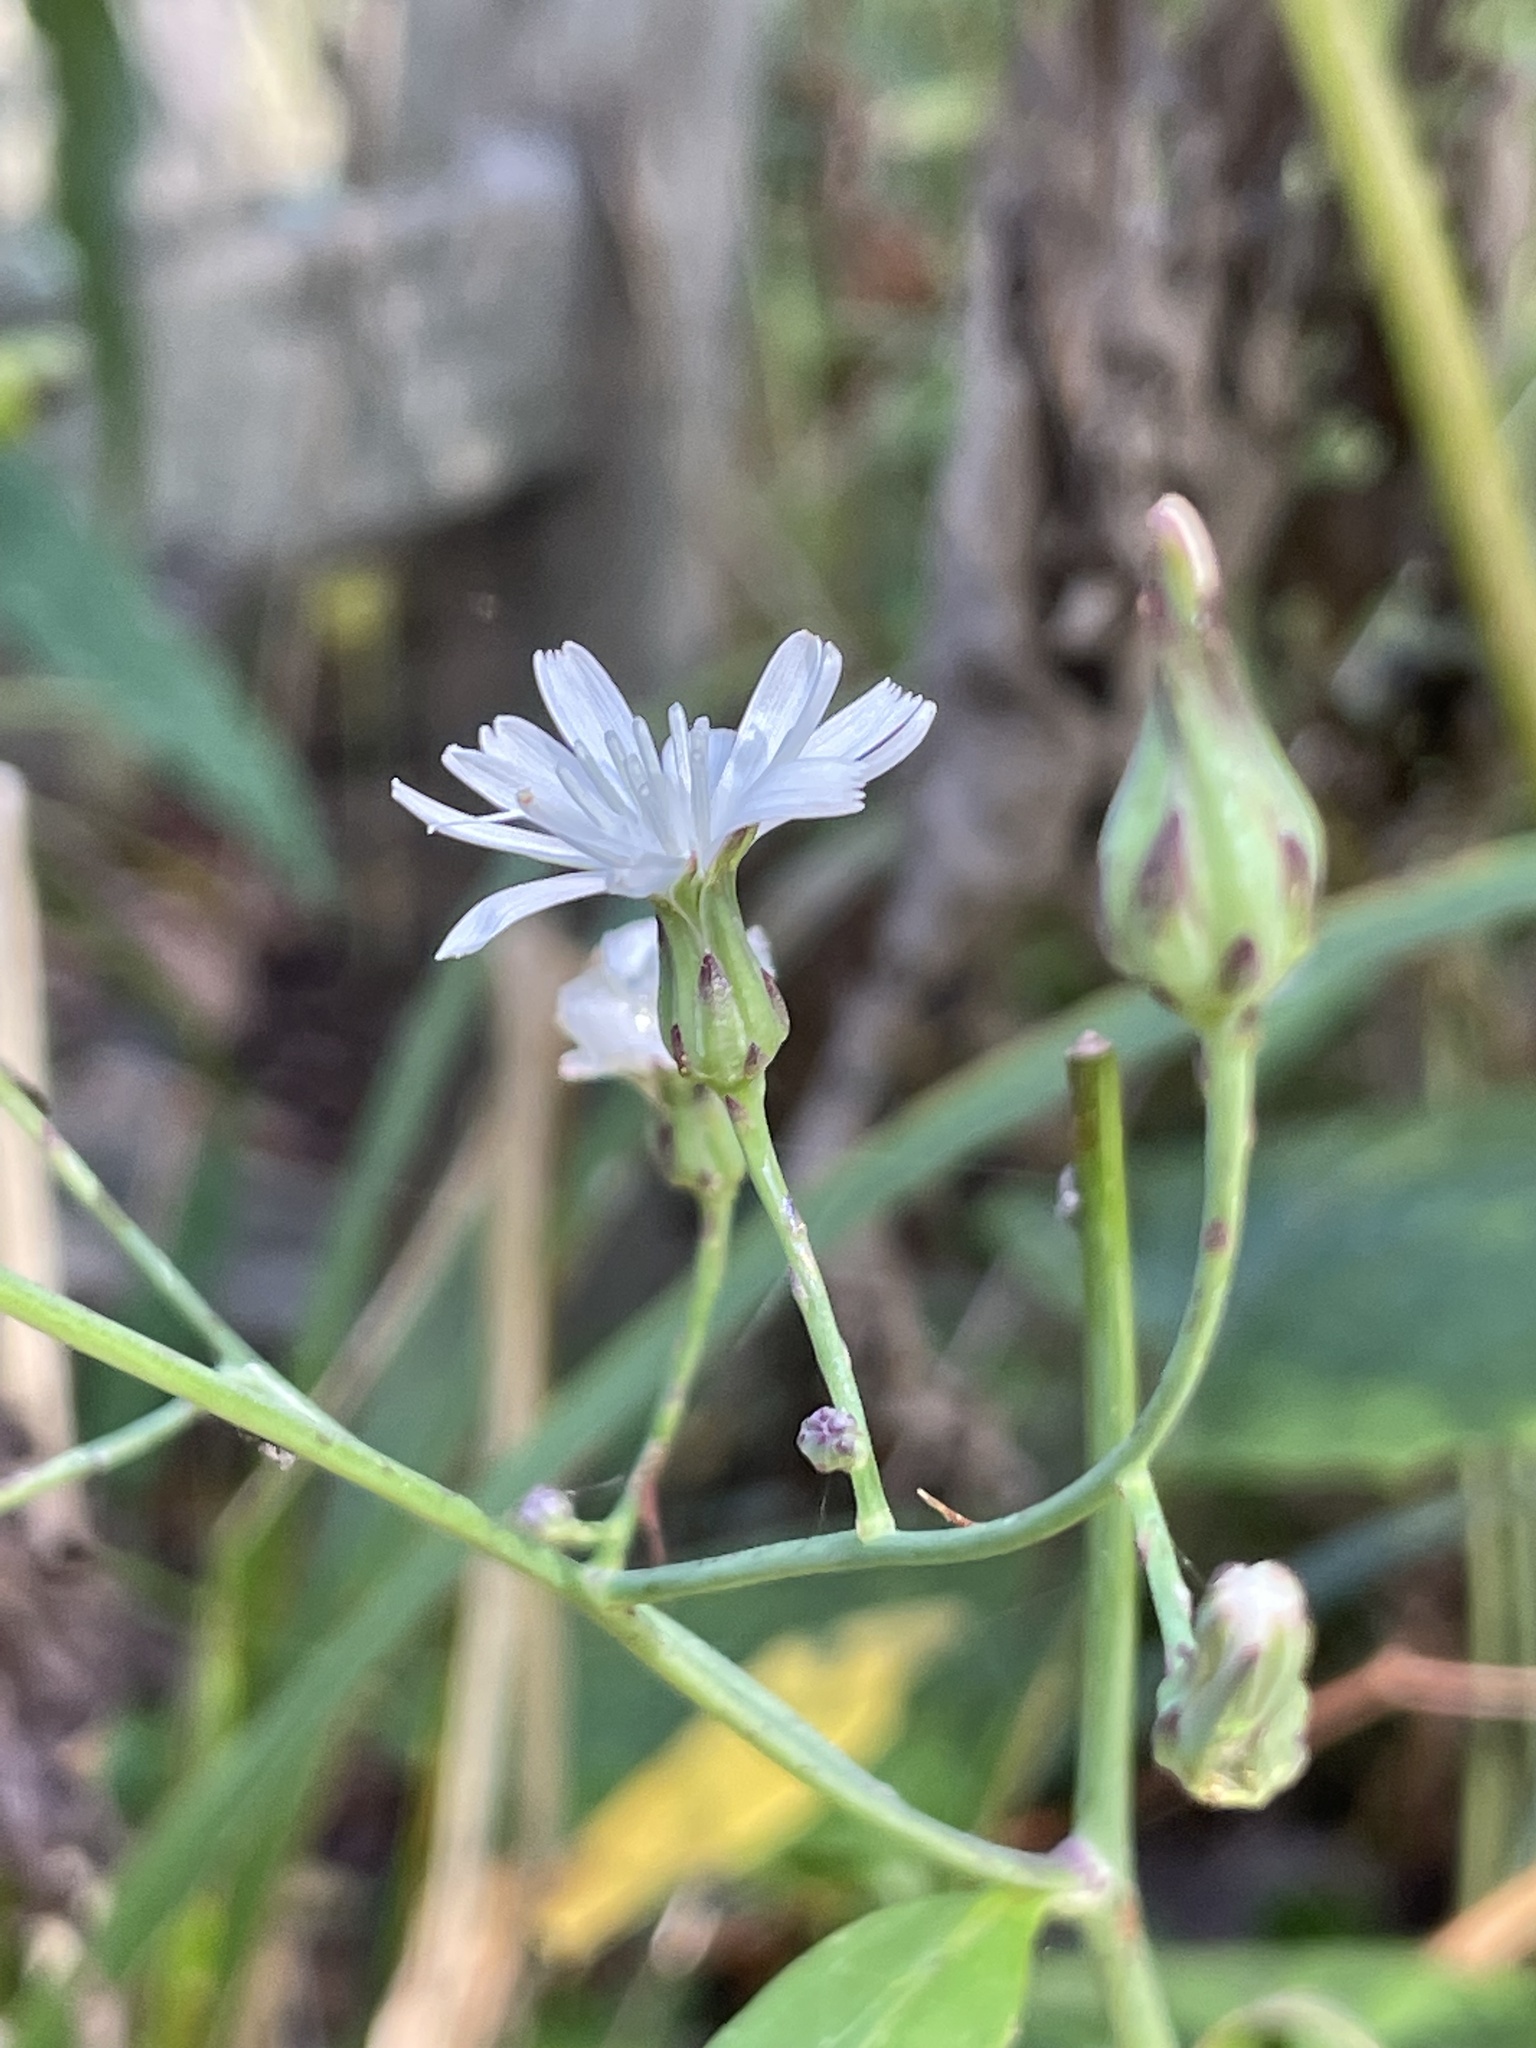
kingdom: Plantae
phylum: Tracheophyta
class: Magnoliopsida
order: Asterales
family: Asteraceae
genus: Lactuca
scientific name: Lactuca floridana
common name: Woodland lettuce
